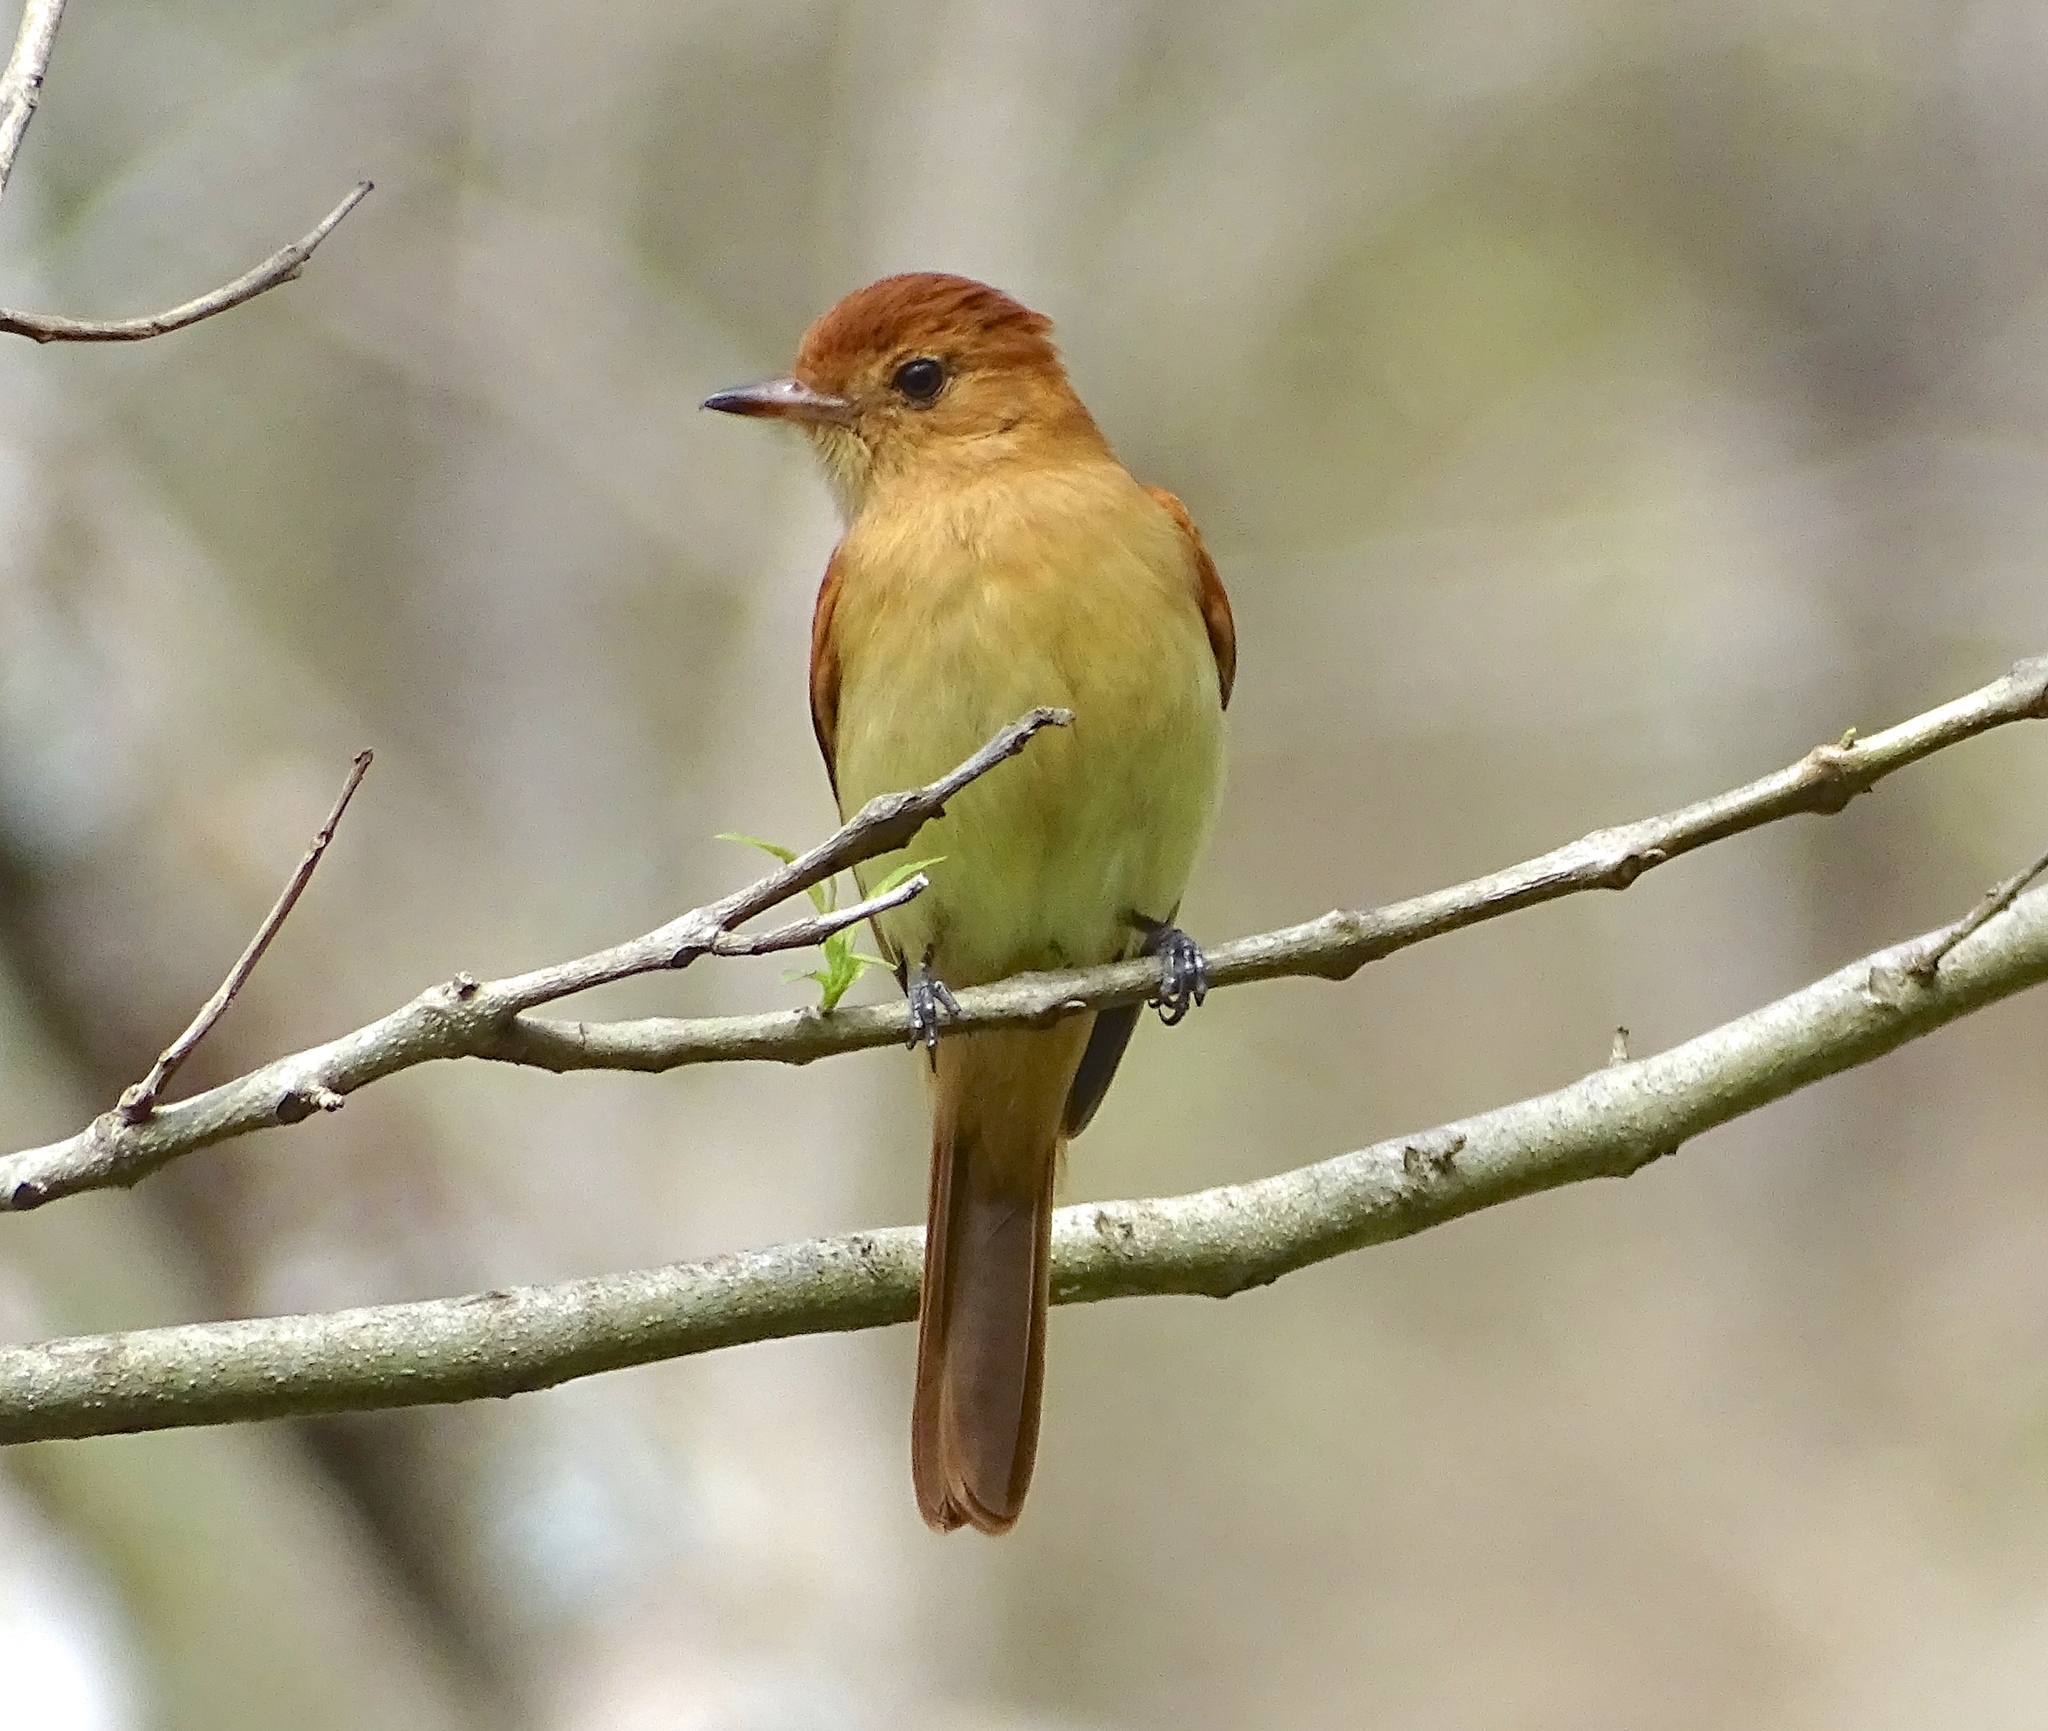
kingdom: Animalia
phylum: Chordata
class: Aves
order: Passeriformes
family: Tyrannidae
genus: Casiornis
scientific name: Casiornis rufus
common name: Rufous casiornis
